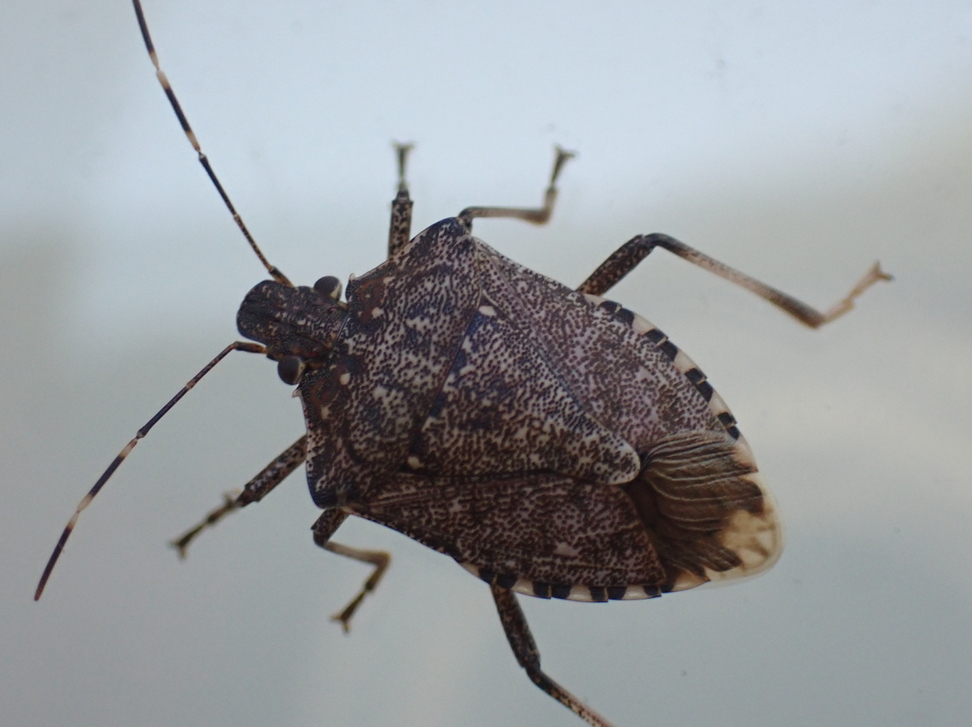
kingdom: Animalia
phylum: Arthropoda
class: Insecta
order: Hemiptera
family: Pentatomidae
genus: Halyomorpha
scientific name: Halyomorpha halys
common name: Brown marmorated stink bug
